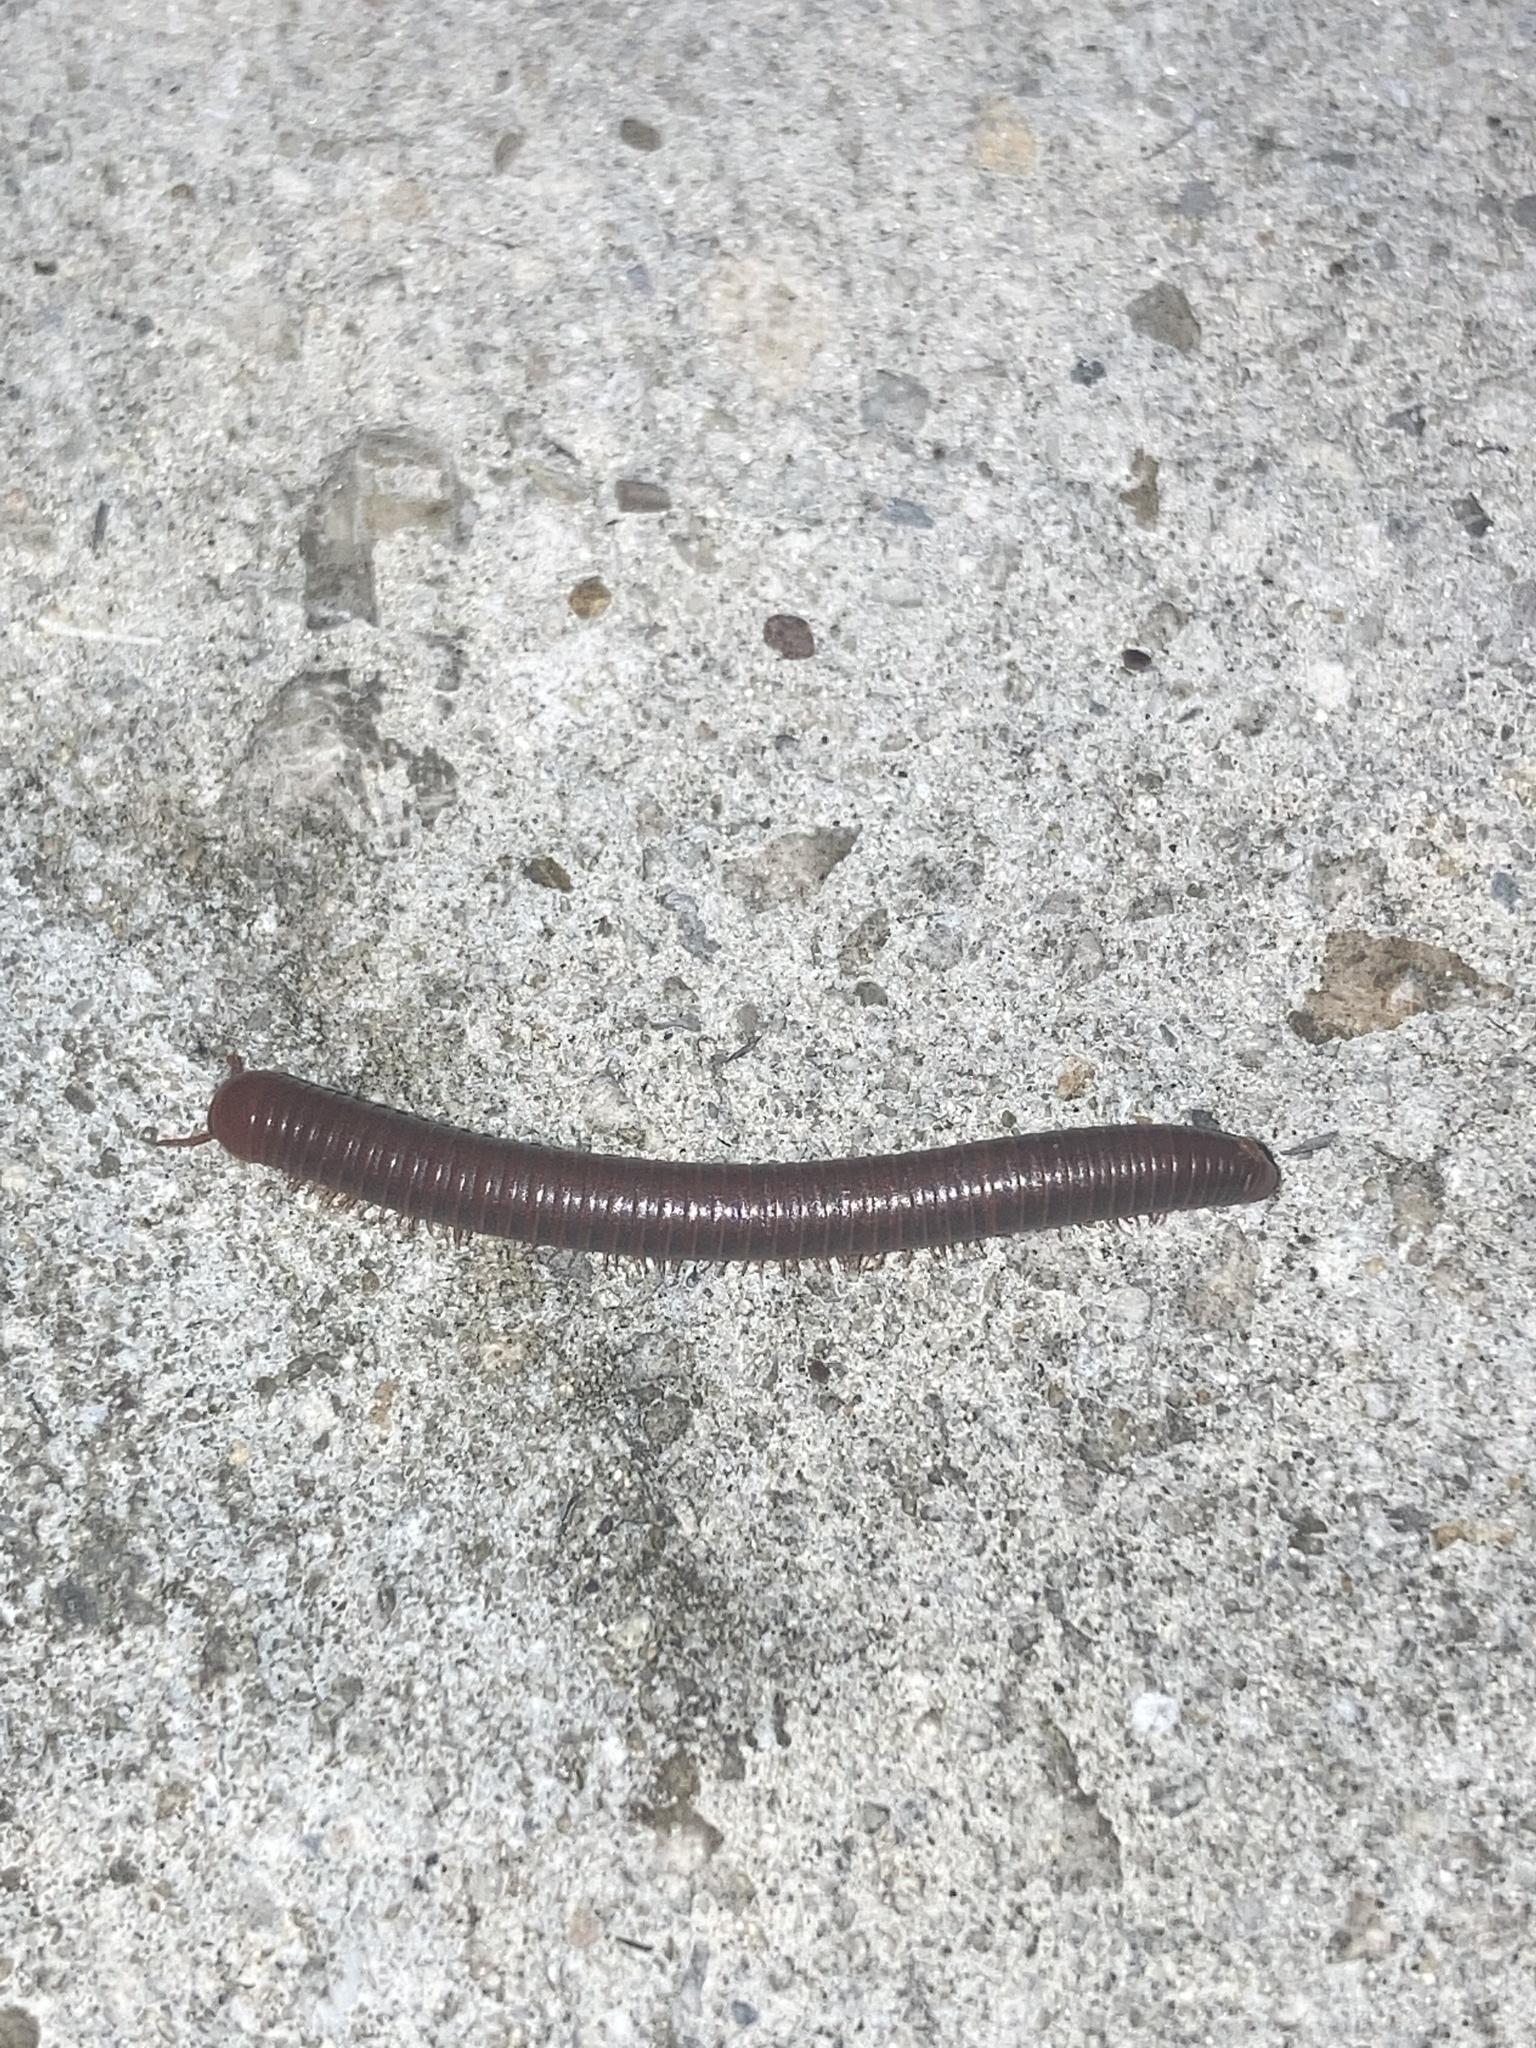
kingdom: Animalia
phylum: Arthropoda
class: Diplopoda
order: Spirobolida
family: Pachybolidae
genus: Trigoniulus
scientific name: Trigoniulus corallinus
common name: Millipede
